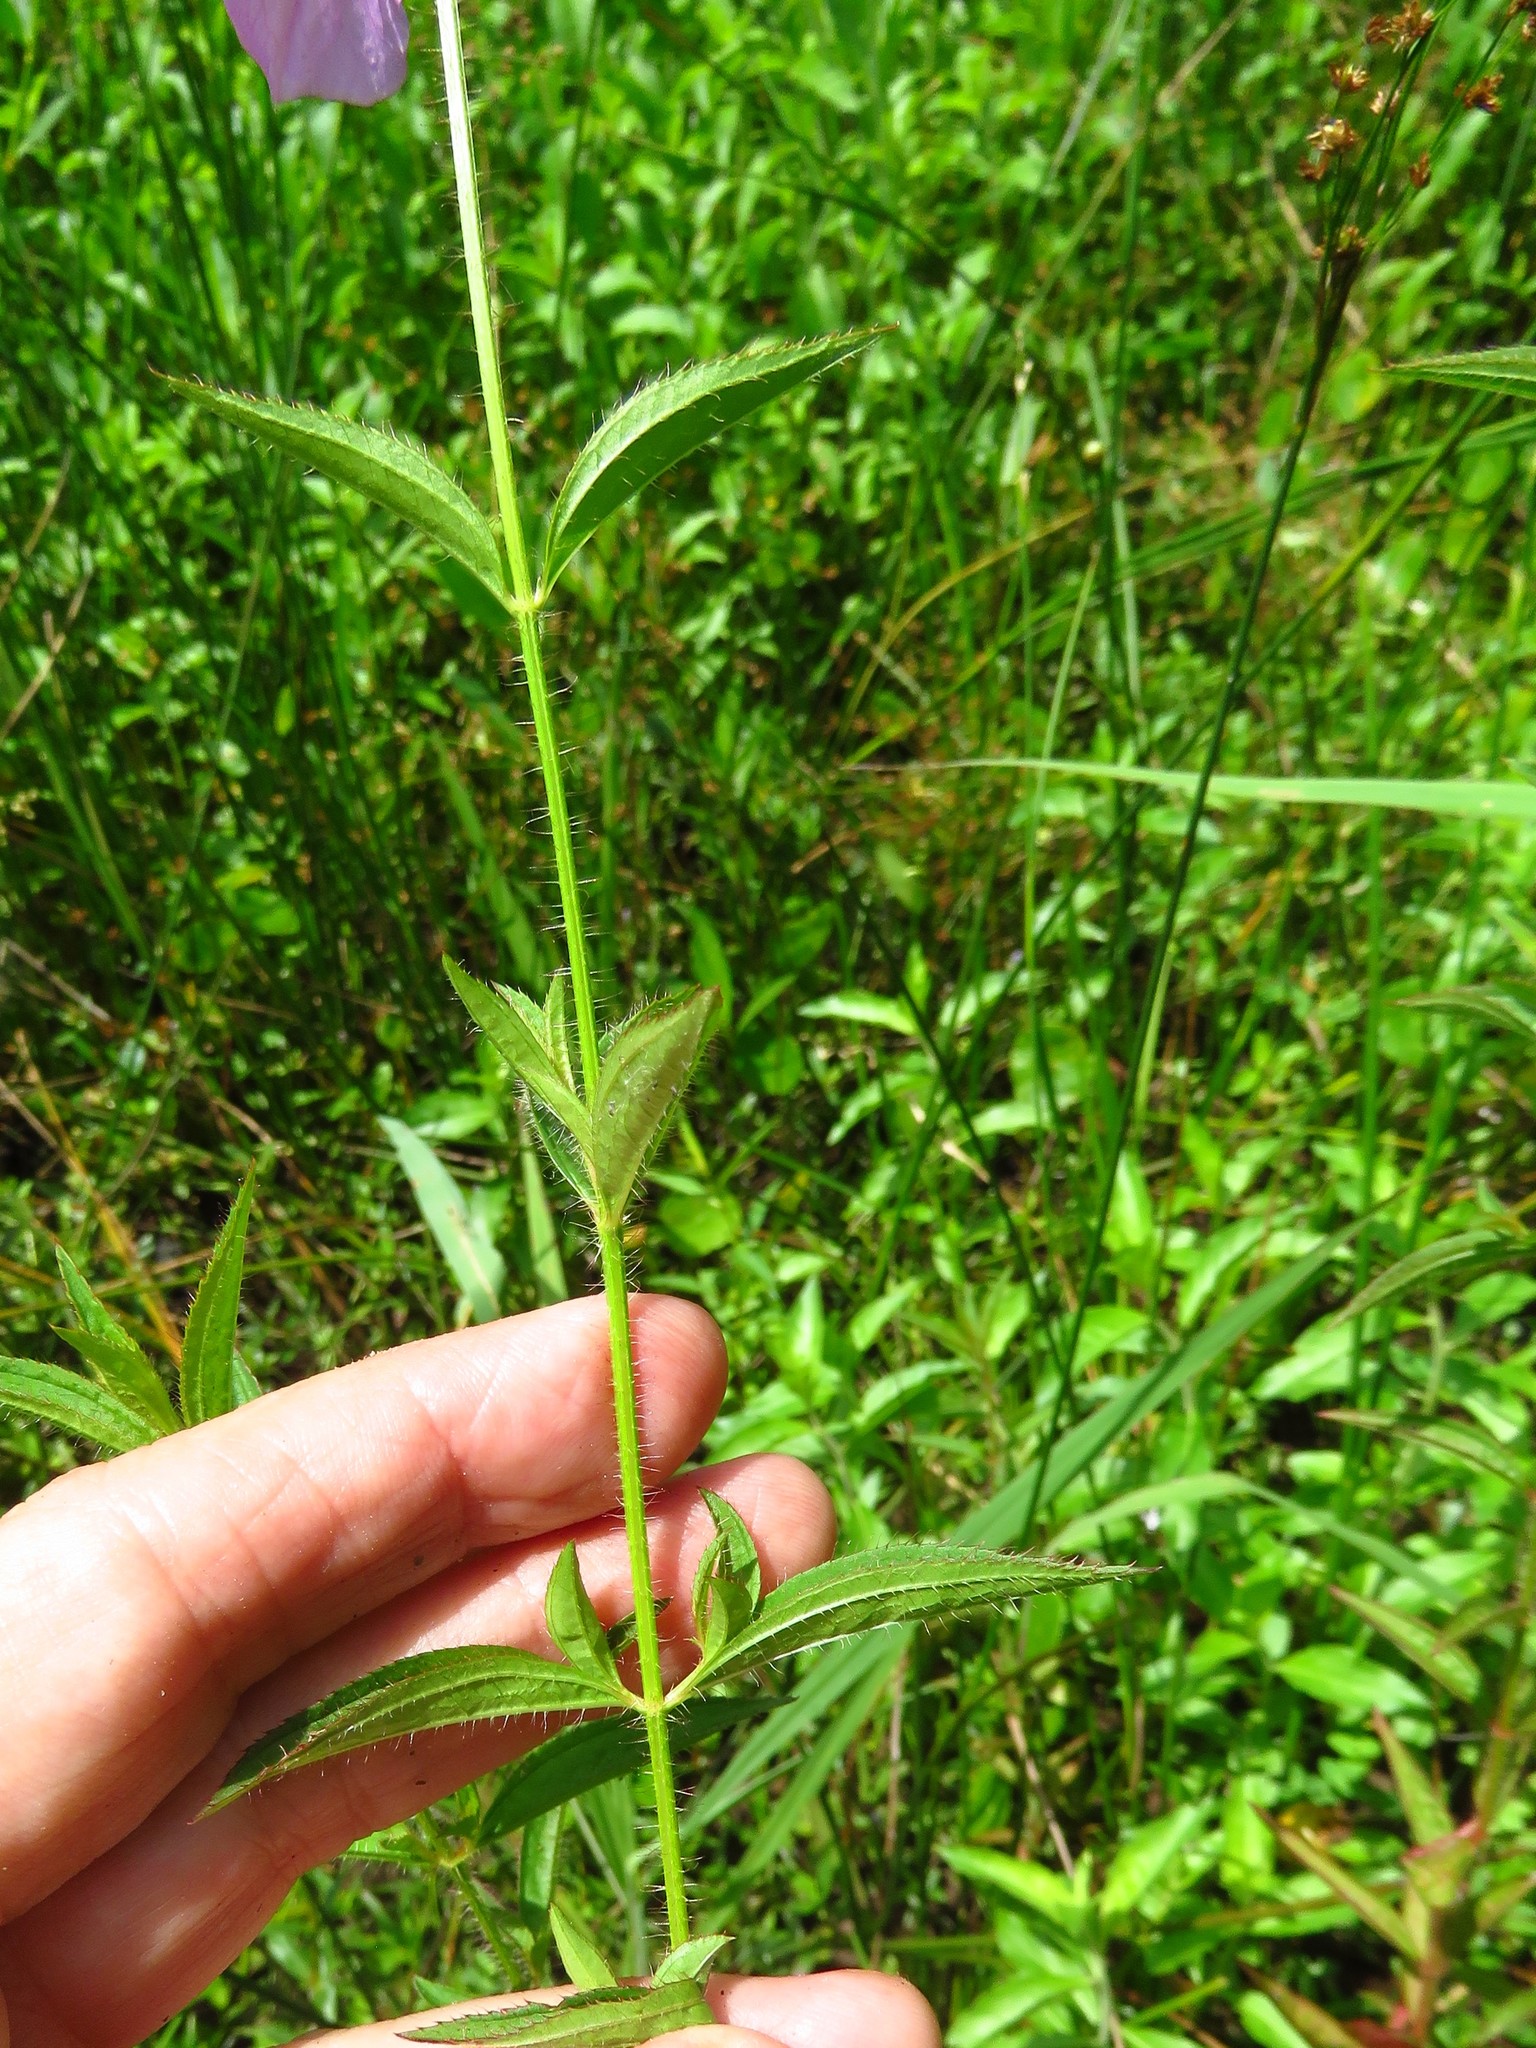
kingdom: Plantae
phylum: Tracheophyta
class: Magnoliopsida
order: Myrtales
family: Melastomataceae
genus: Rhexia
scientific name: Rhexia mariana
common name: Dull meadow-pitcher
